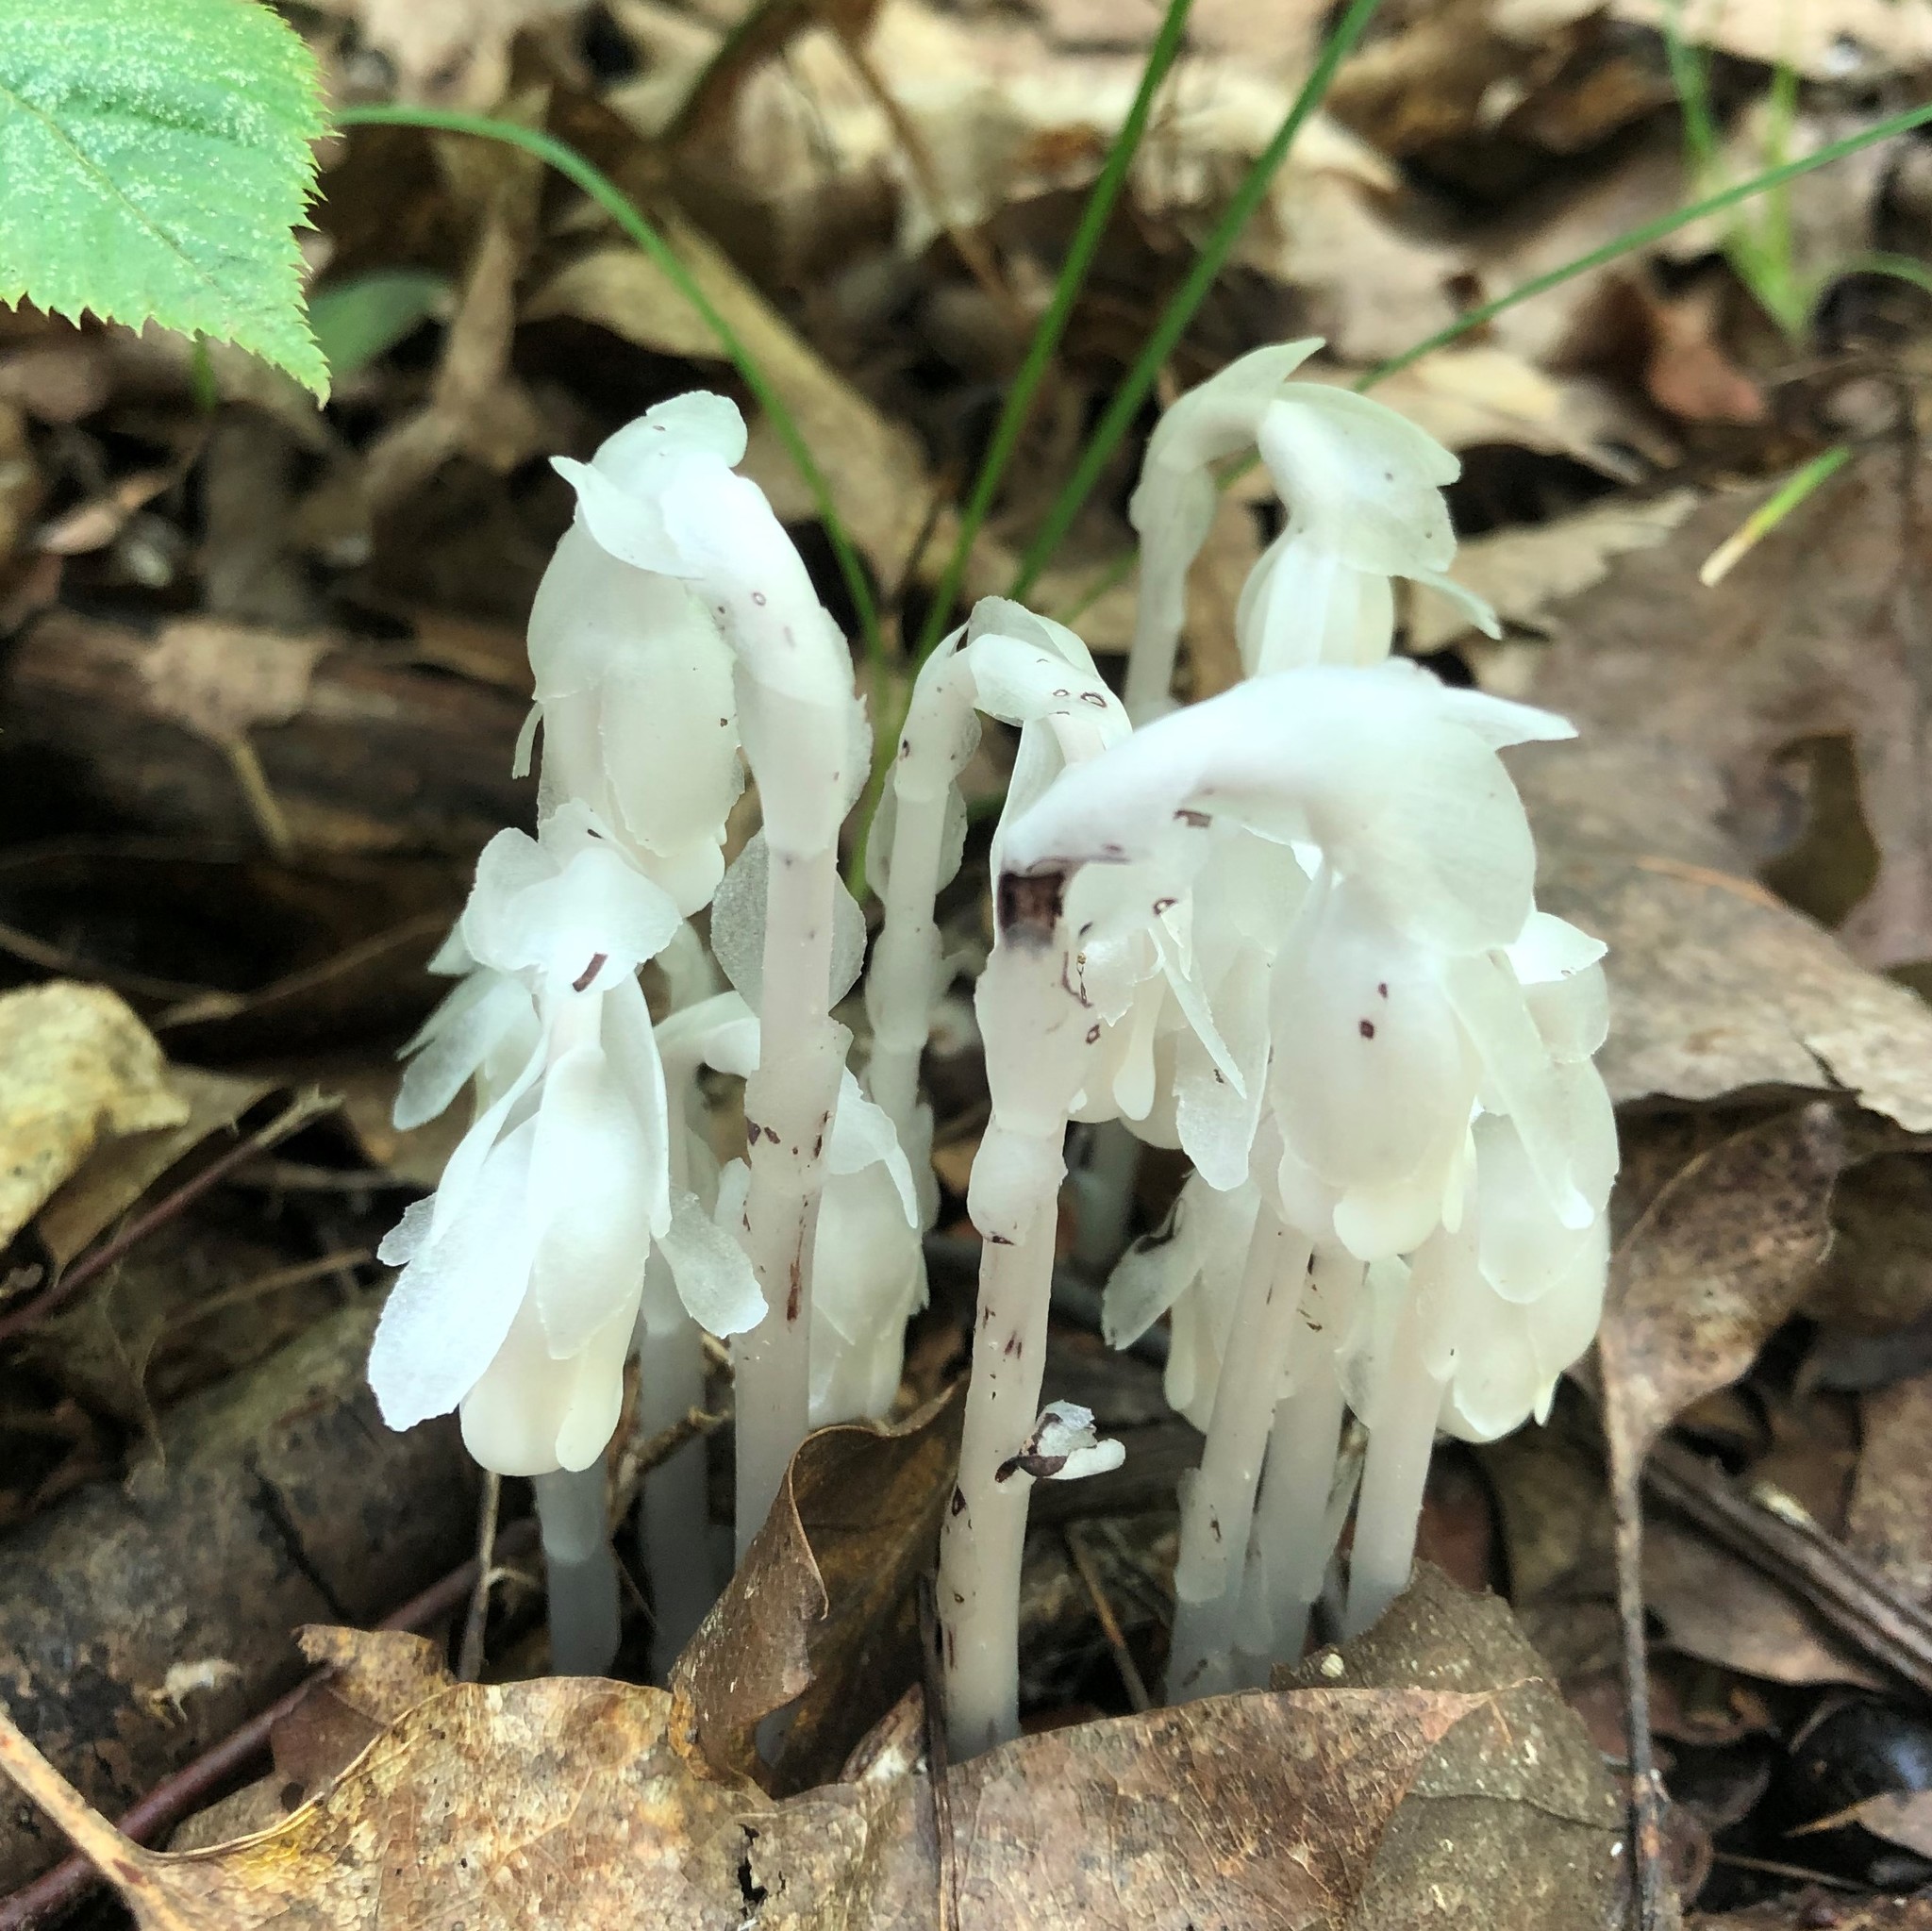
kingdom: Plantae
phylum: Tracheophyta
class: Magnoliopsida
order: Ericales
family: Ericaceae
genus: Monotropa
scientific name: Monotropa uniflora
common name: Convulsion root
